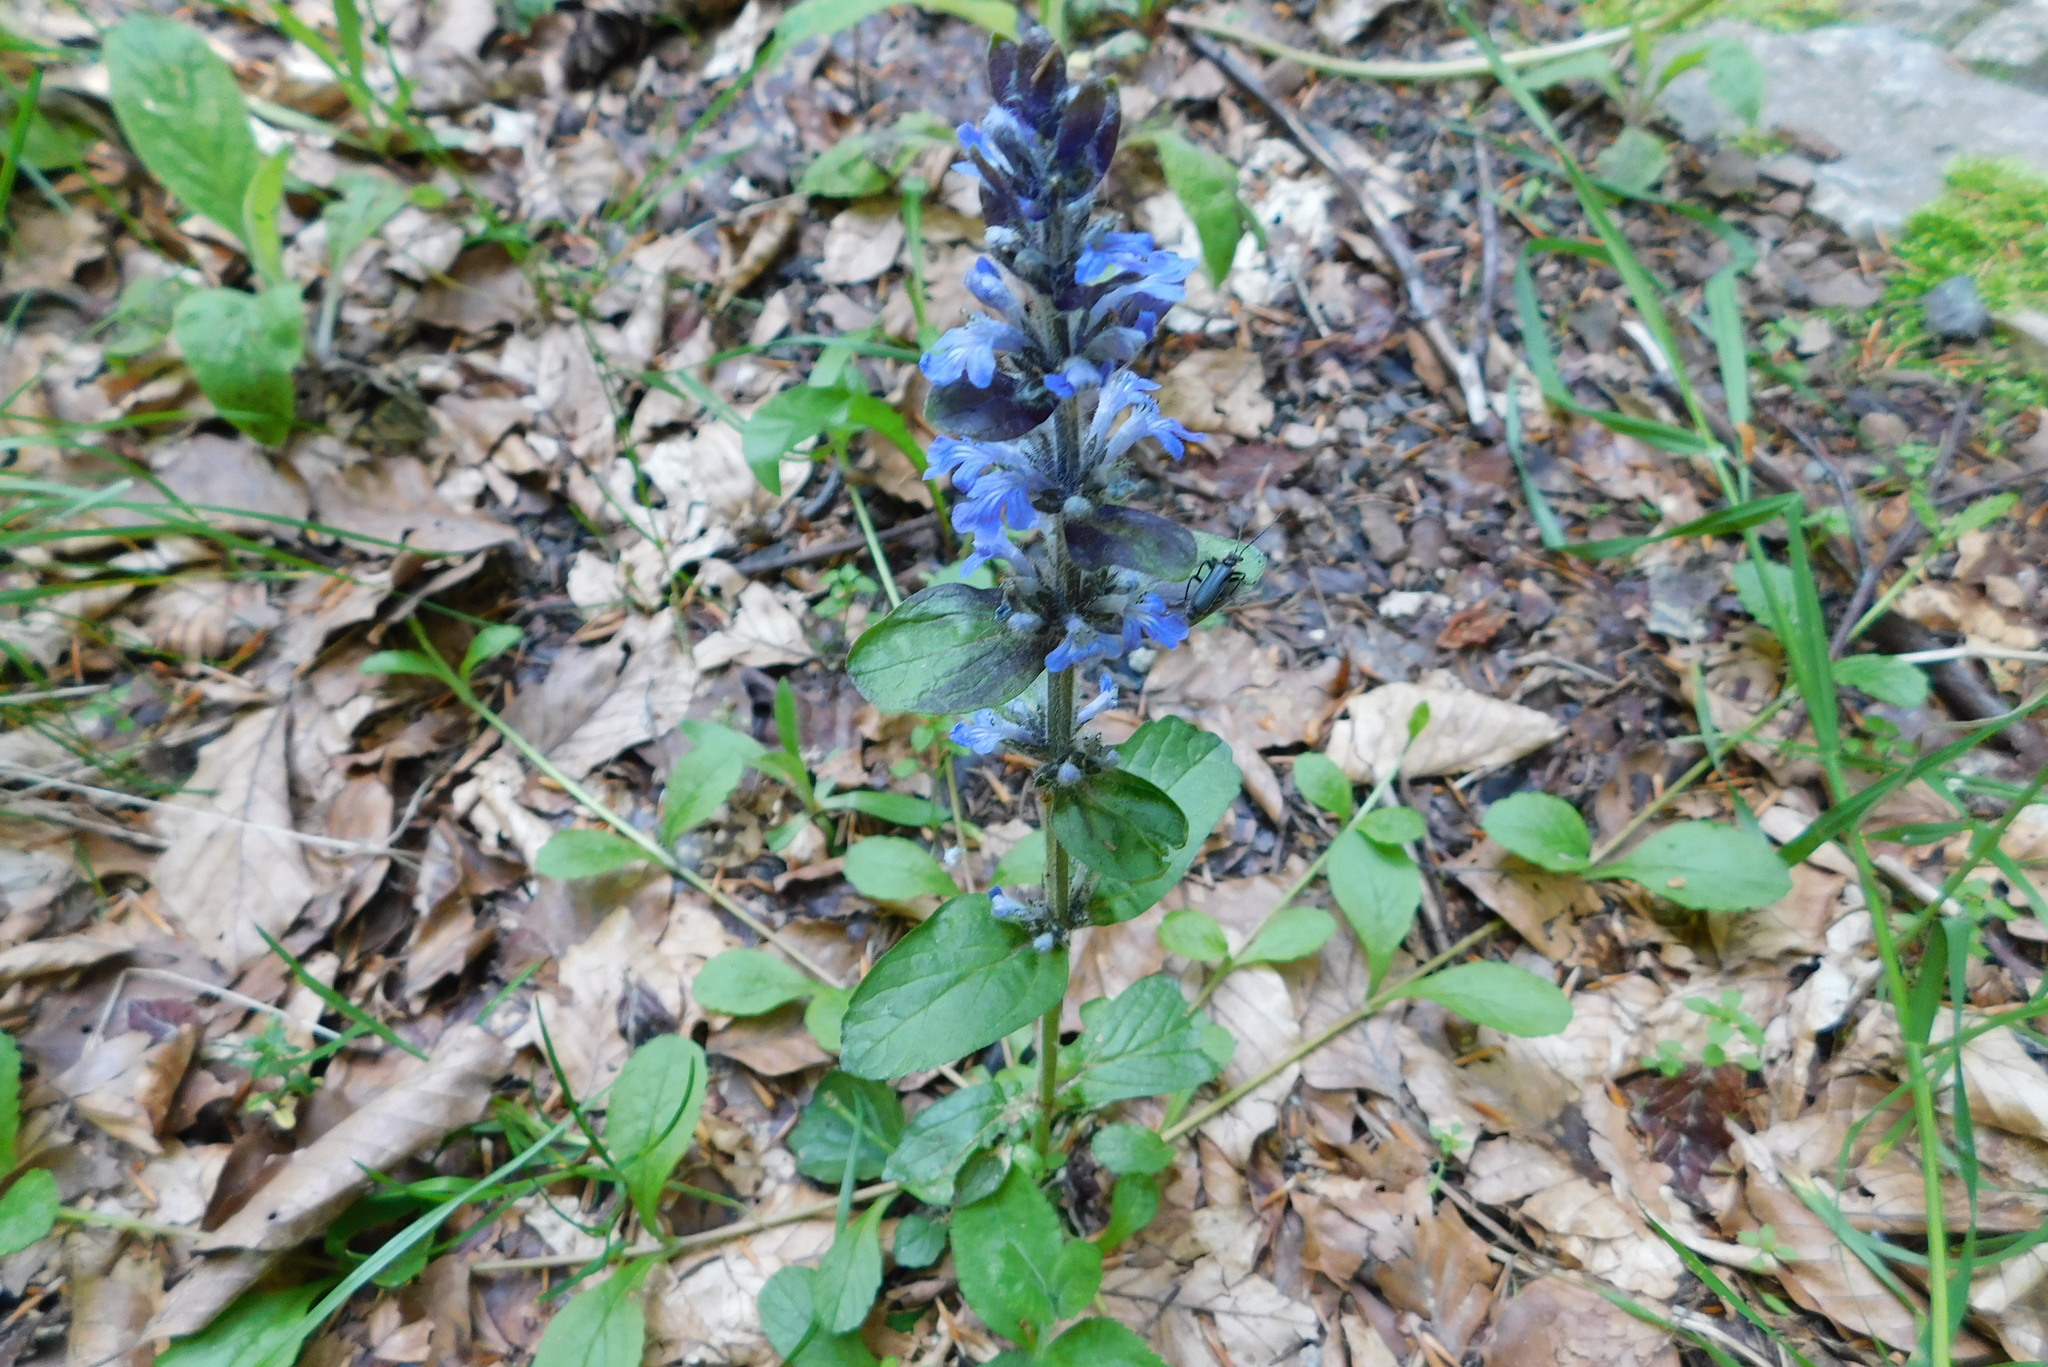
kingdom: Plantae
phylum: Tracheophyta
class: Magnoliopsida
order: Lamiales
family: Lamiaceae
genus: Ajuga
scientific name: Ajuga reptans
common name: Bugle
